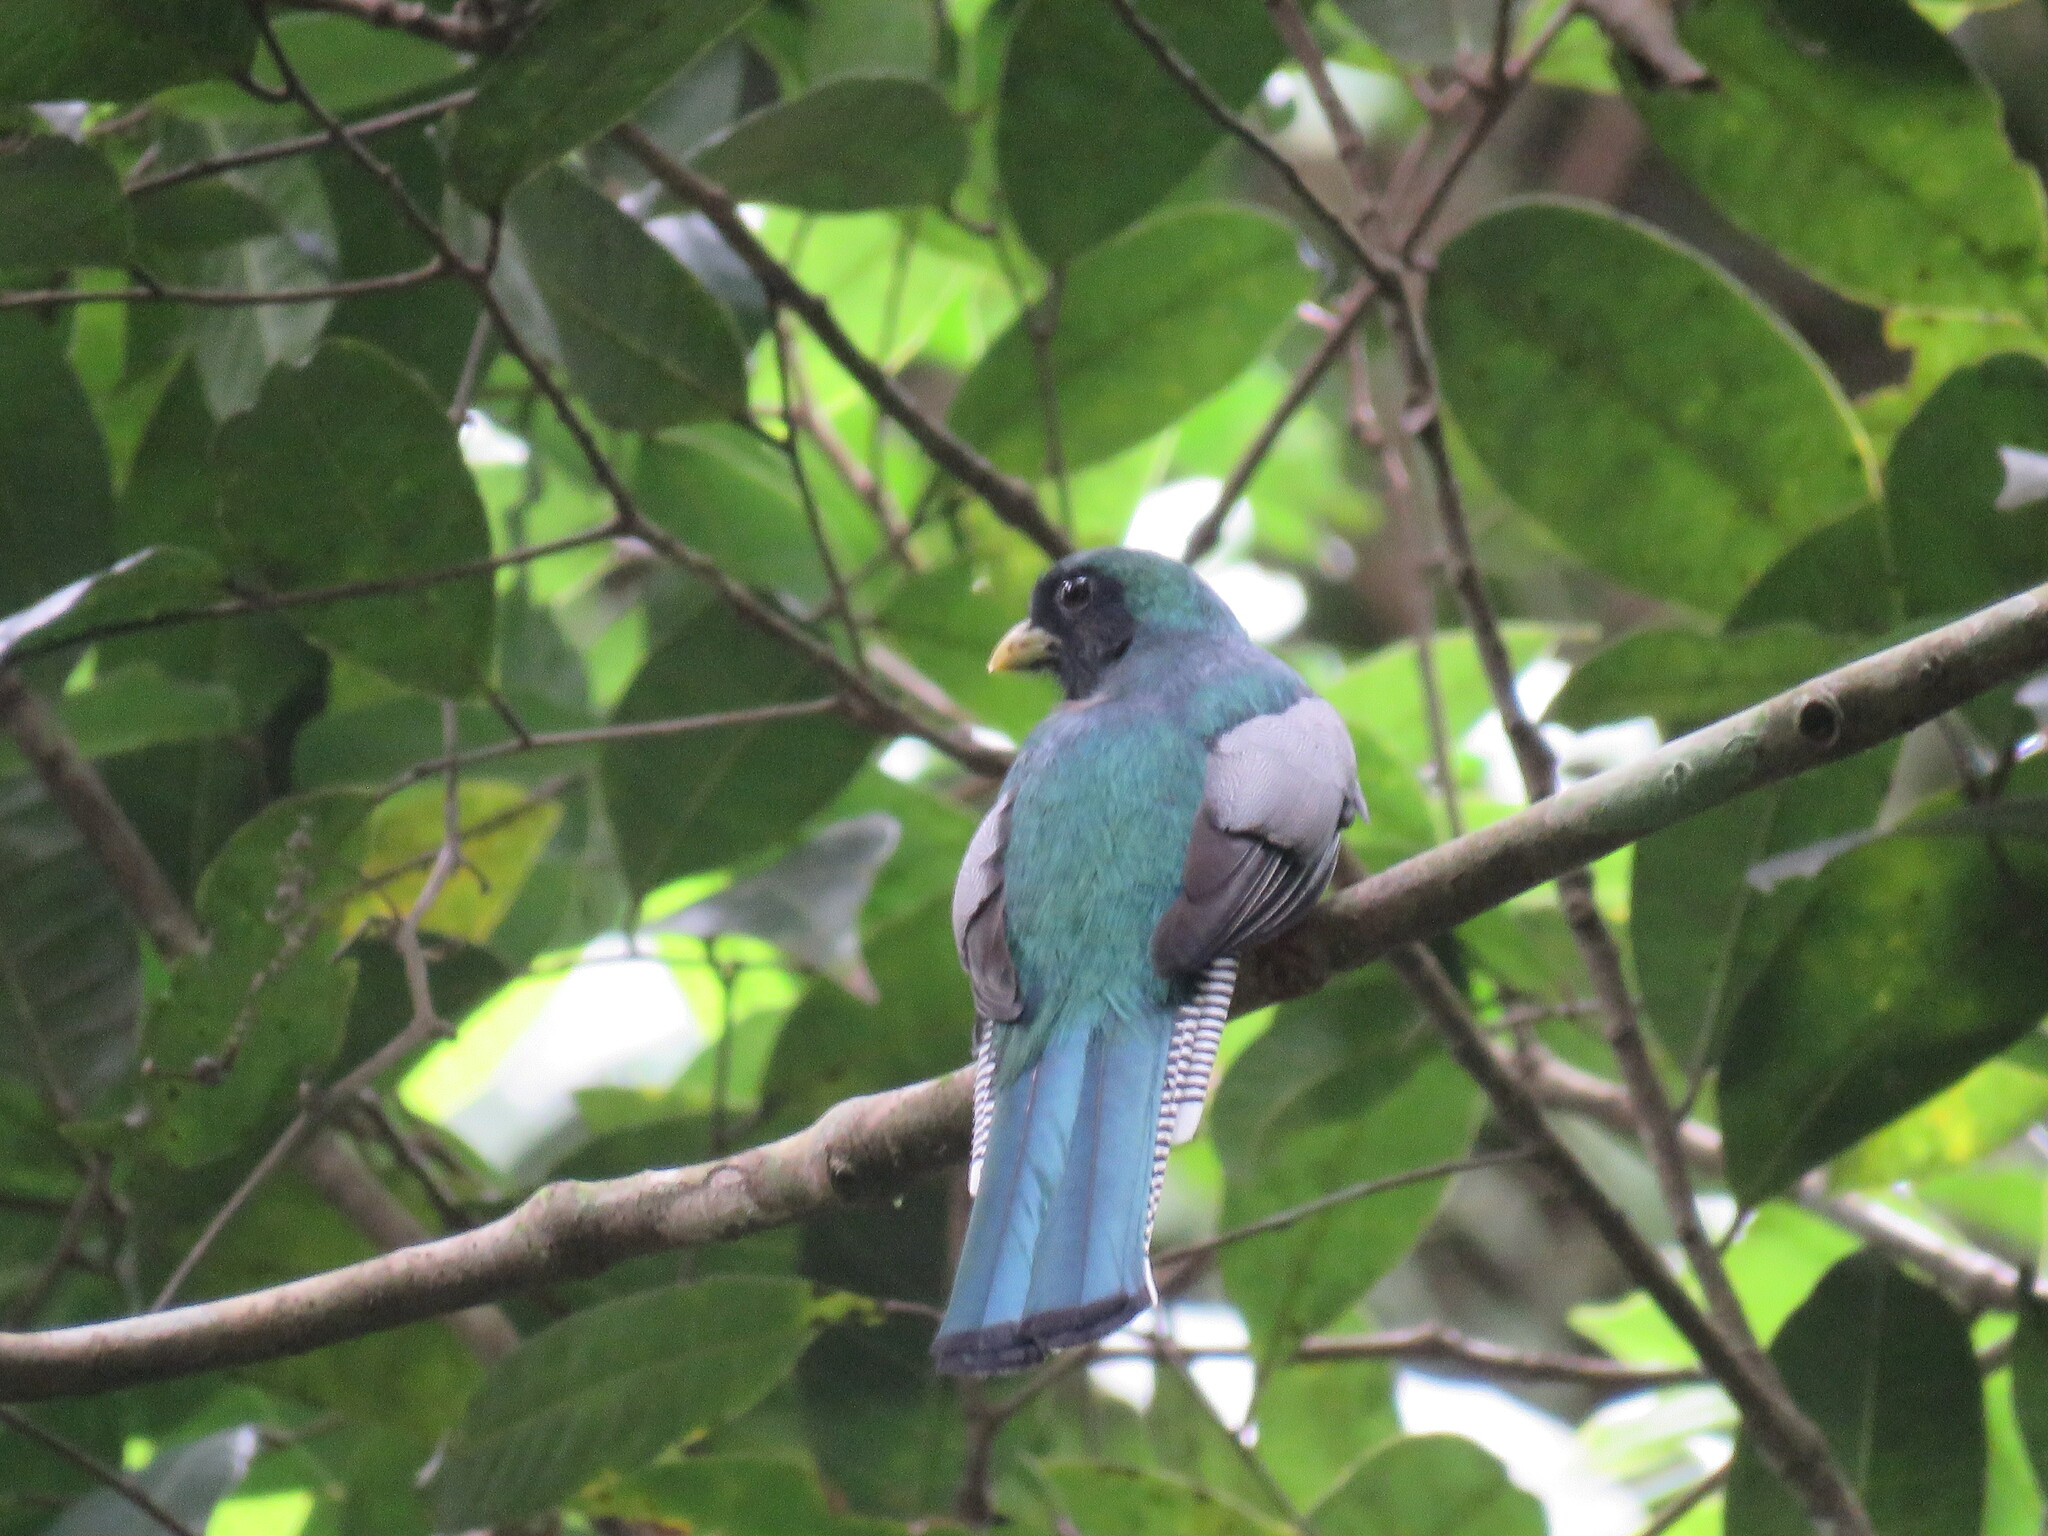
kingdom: Animalia
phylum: Chordata
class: Aves
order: Trogoniformes
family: Trogonidae
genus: Trogon
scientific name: Trogon collaris
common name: Collared trogon
